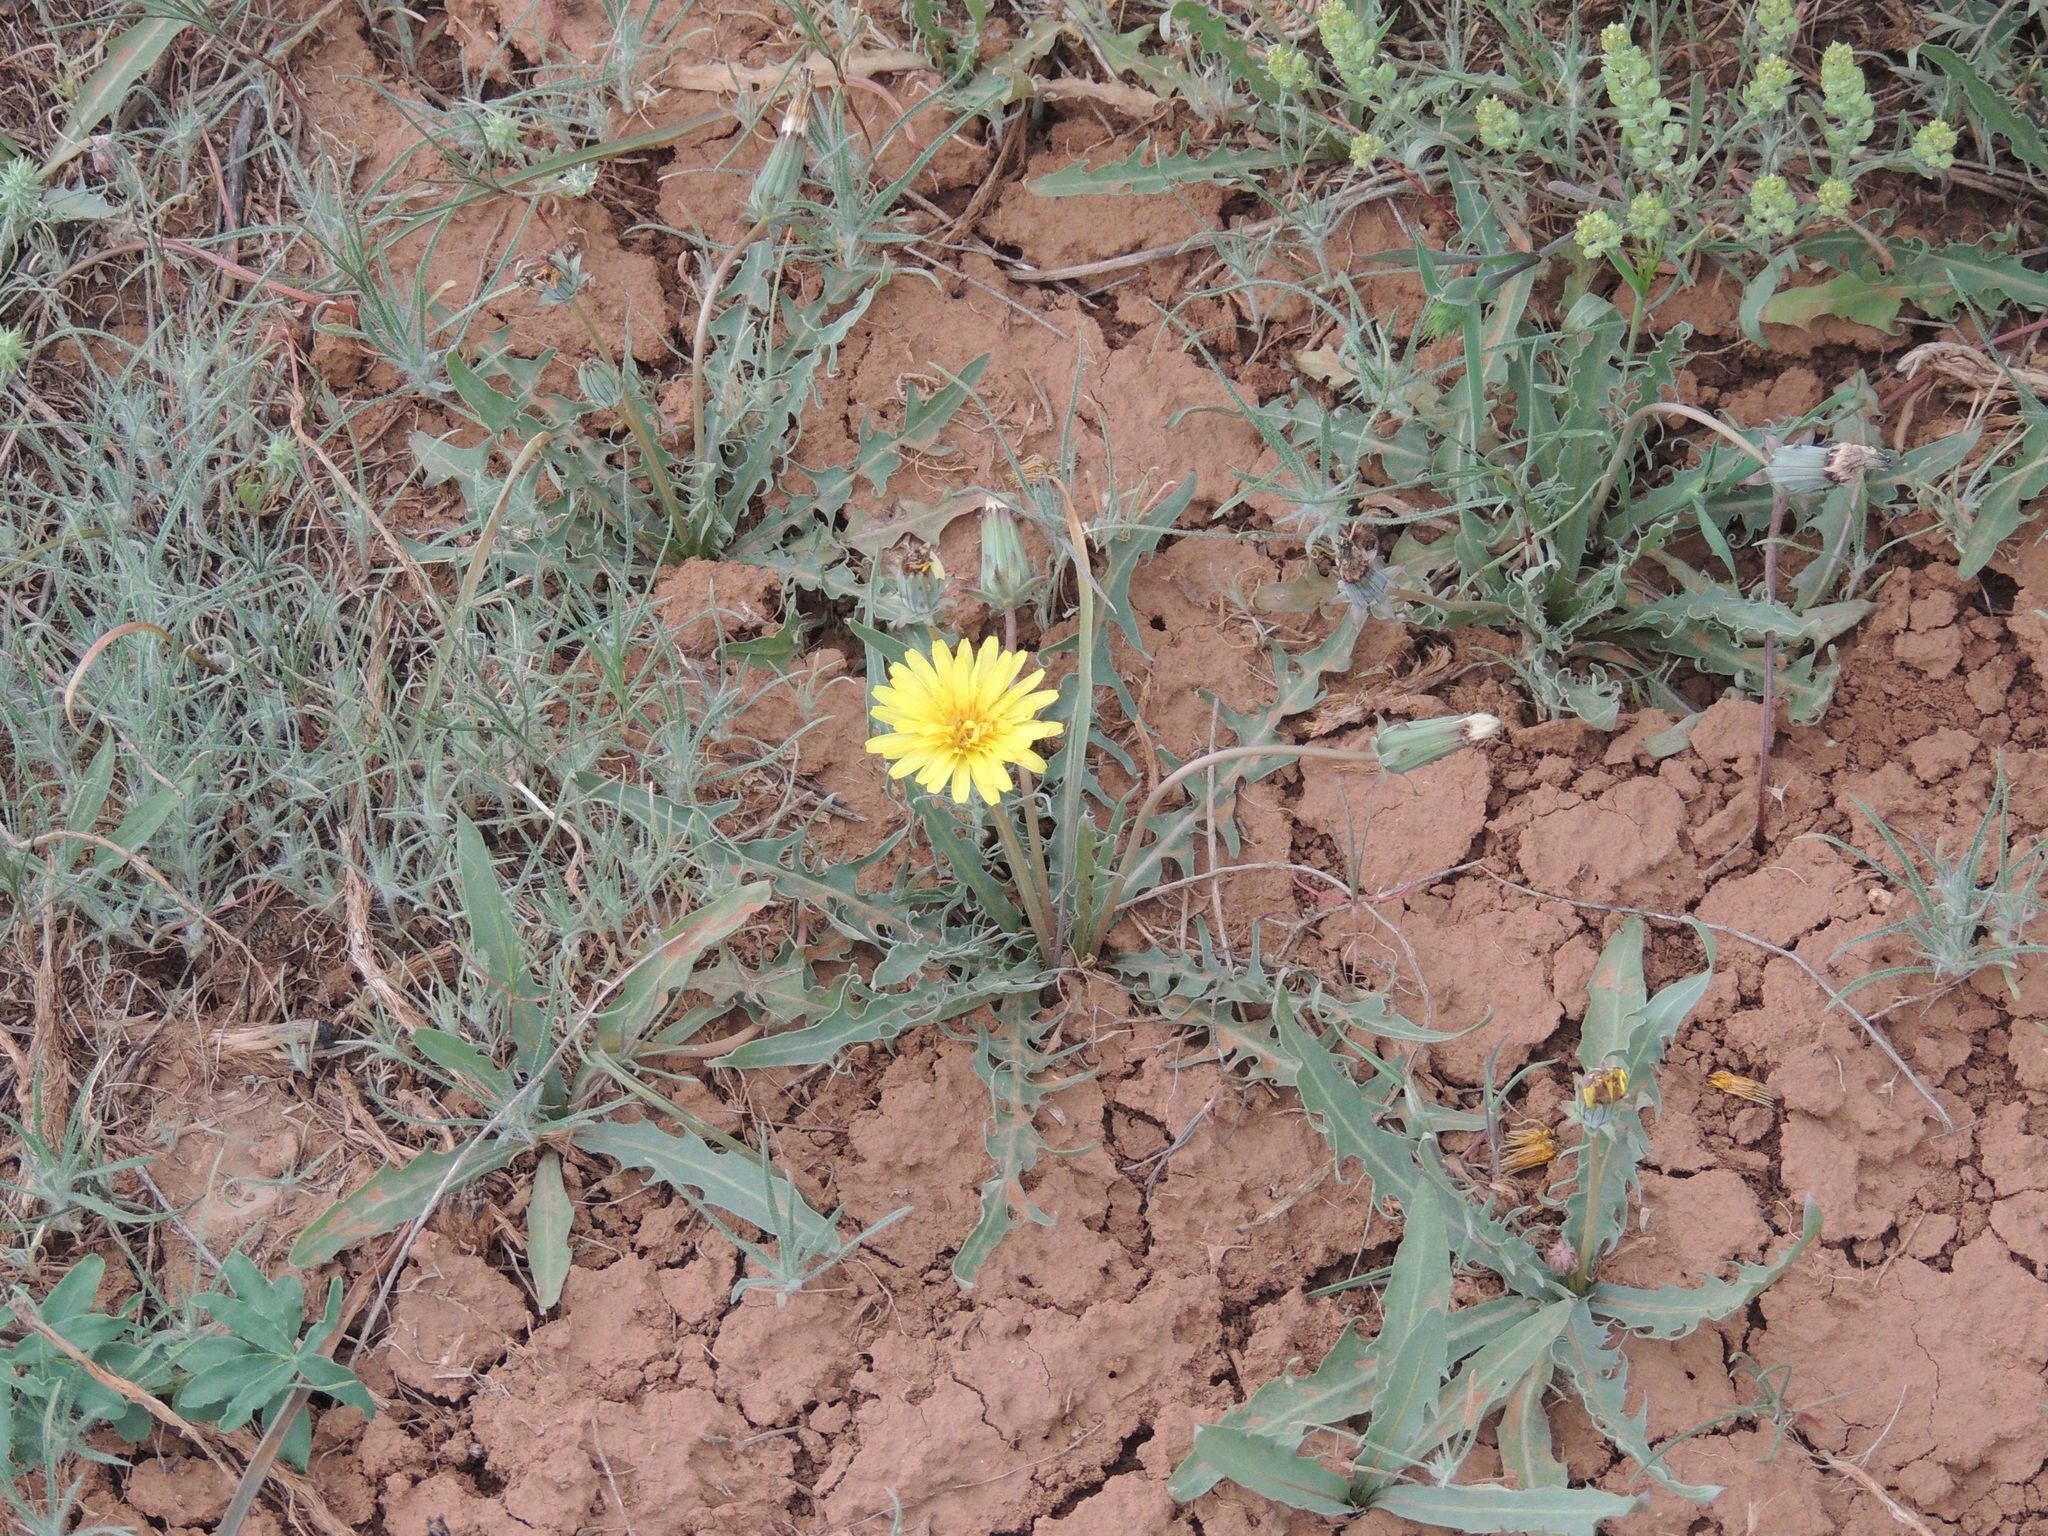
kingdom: Plantae
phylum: Tracheophyta
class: Magnoliopsida
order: Asterales
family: Asteraceae
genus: Taraxacum
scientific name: Taraxacum glaucanthum
